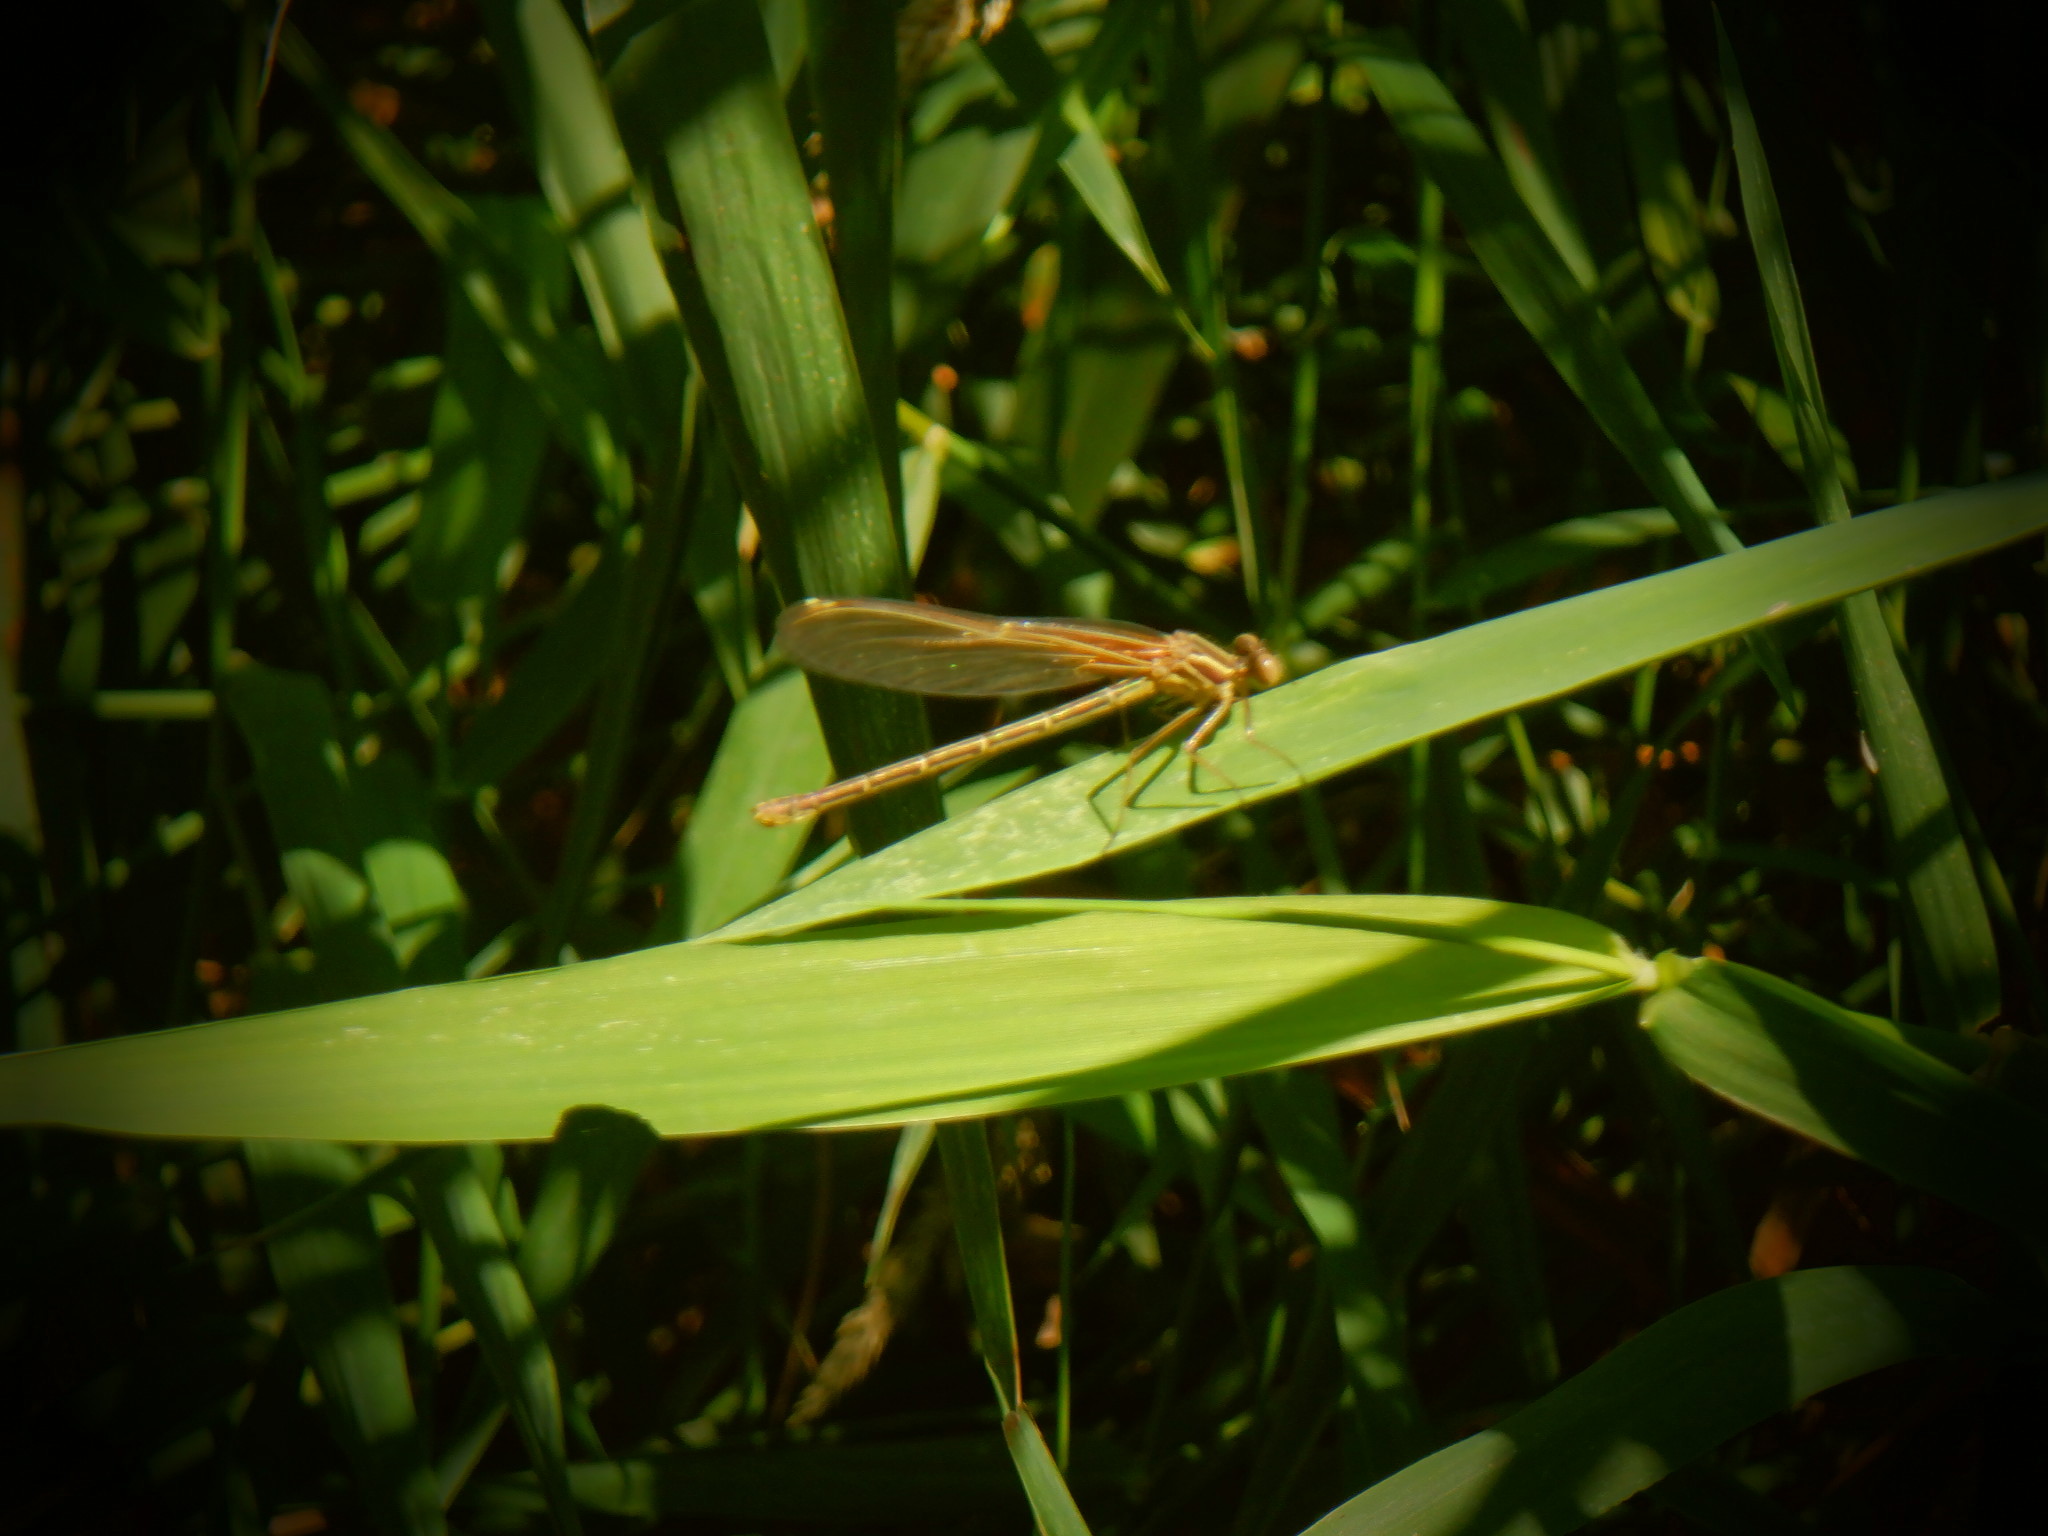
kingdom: Animalia
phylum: Arthropoda
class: Insecta
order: Odonata
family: Calopterygidae
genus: Hetaerina
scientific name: Hetaerina americana
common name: American rubyspot
